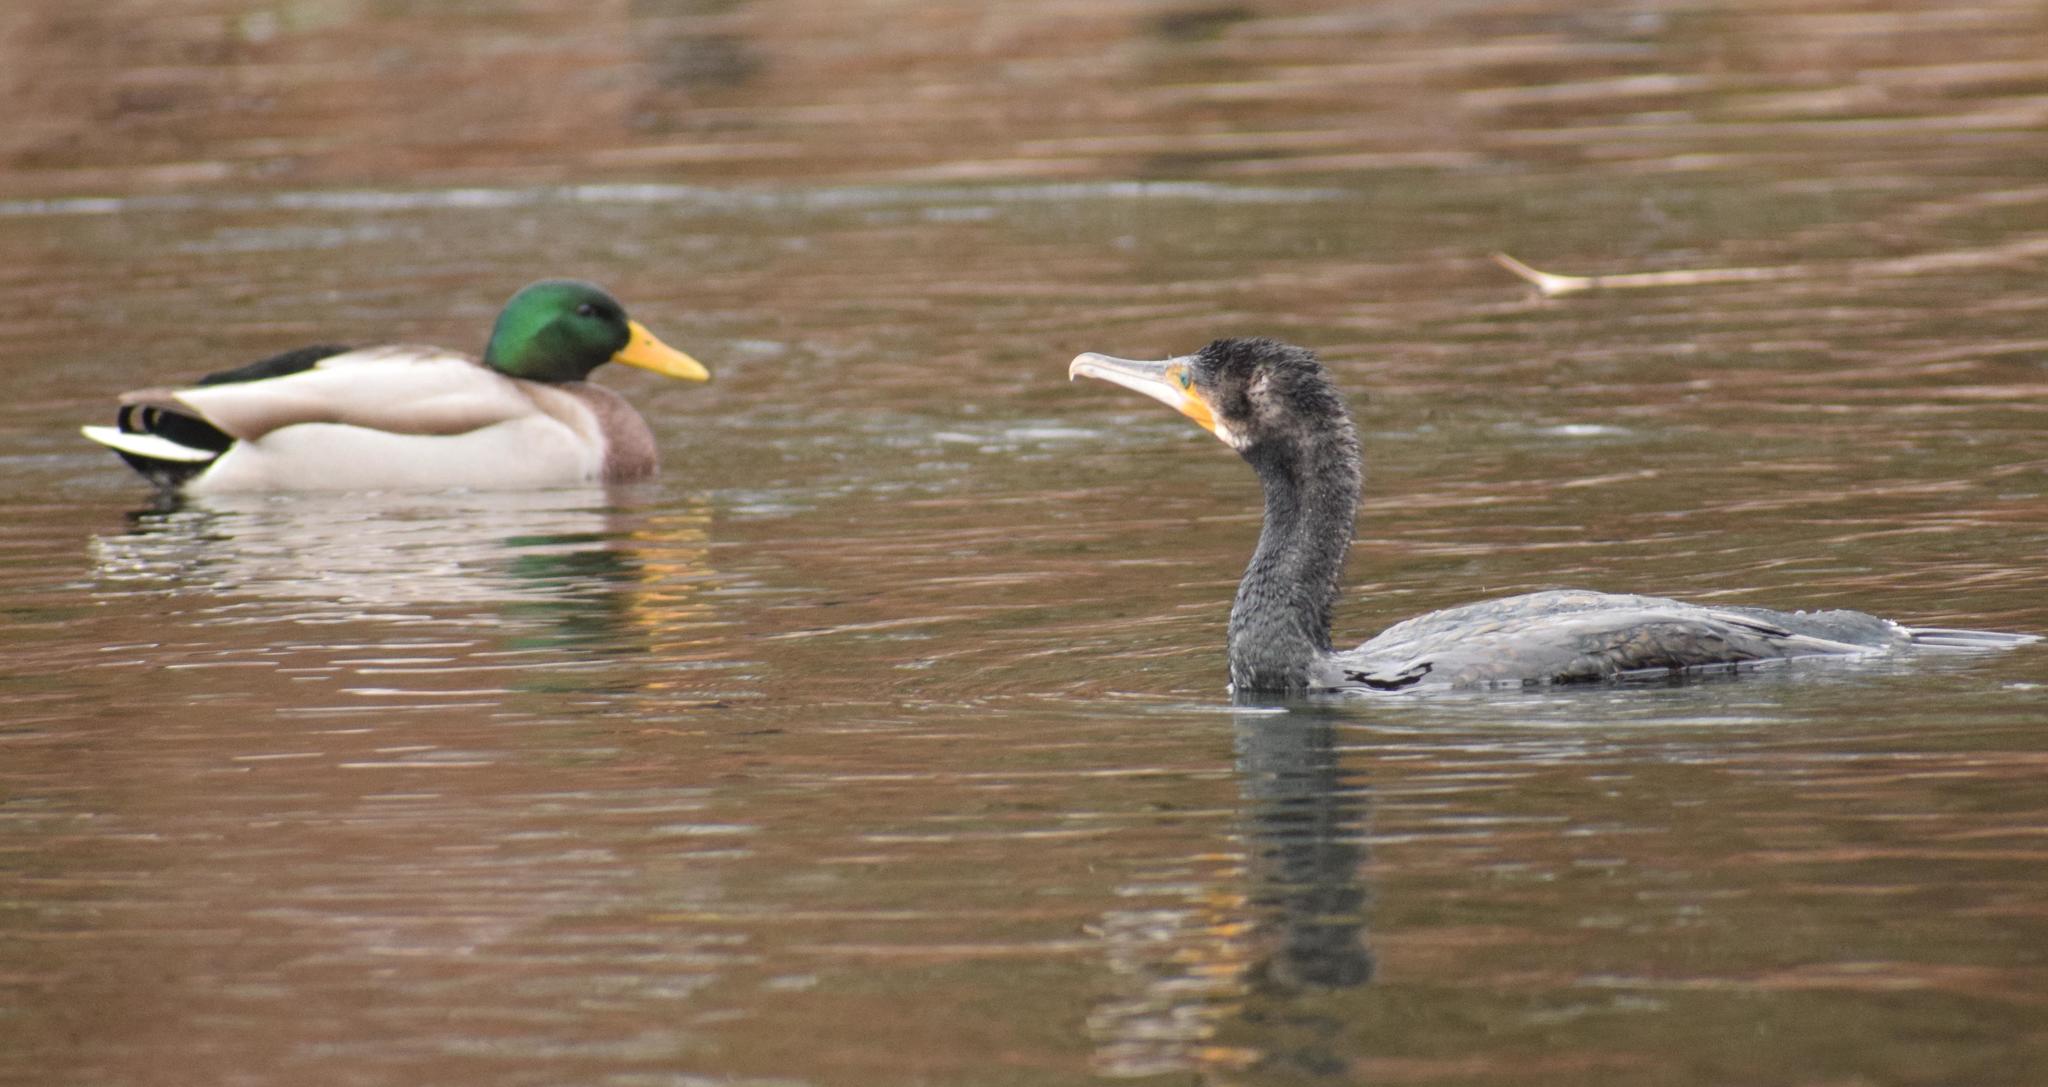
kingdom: Animalia
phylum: Chordata
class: Aves
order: Suliformes
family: Phalacrocoracidae
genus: Phalacrocorax
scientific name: Phalacrocorax carbo
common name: Great cormorant
